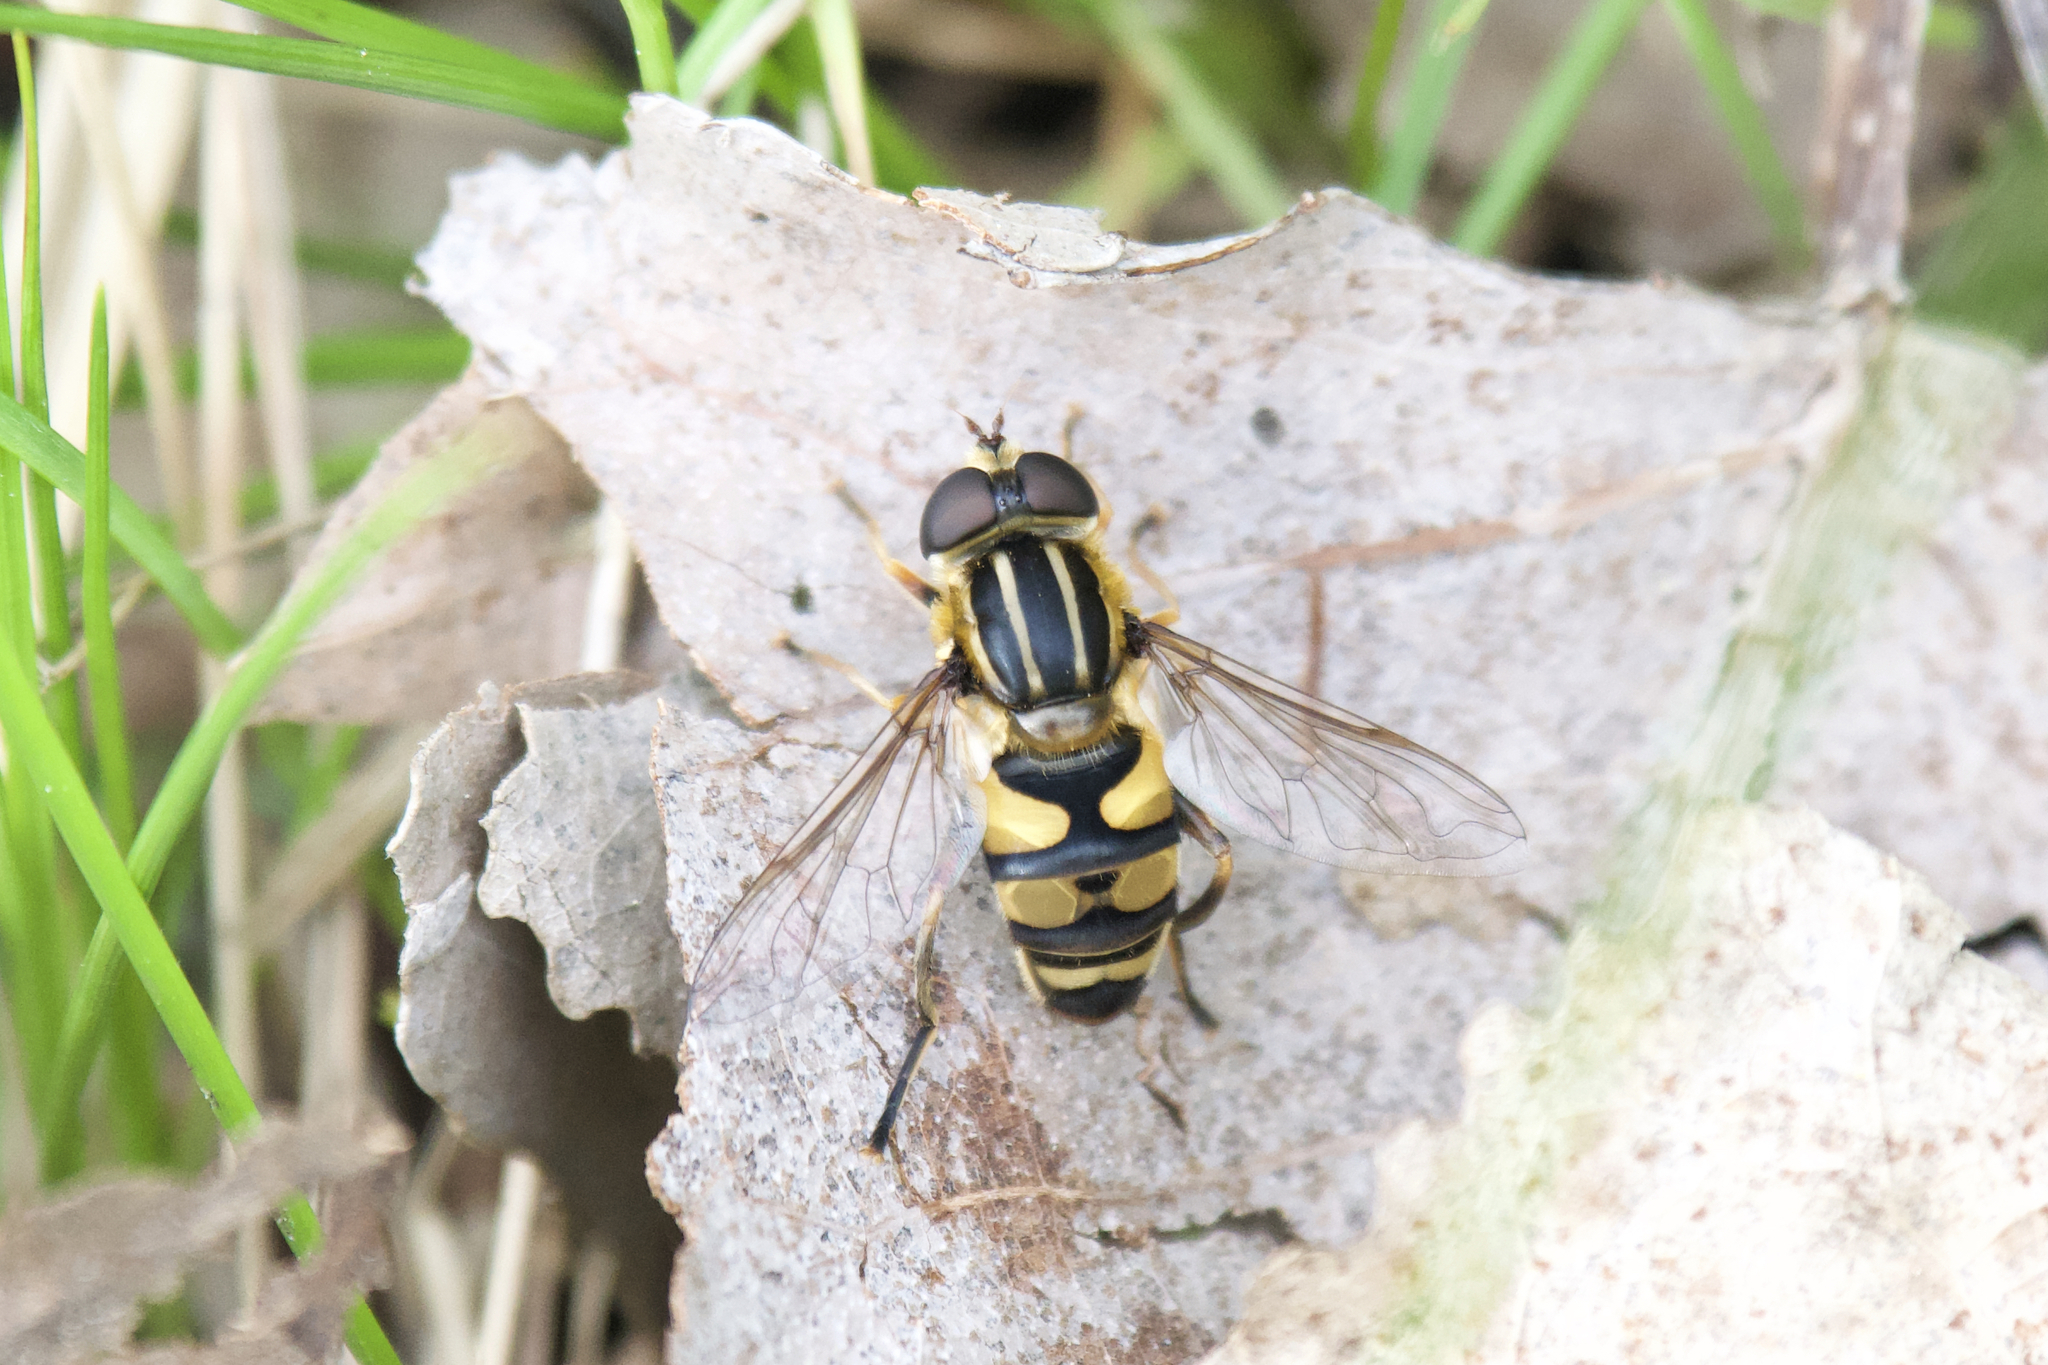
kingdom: Animalia
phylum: Arthropoda
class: Insecta
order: Diptera
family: Syrphidae
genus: Helophilus
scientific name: Helophilus fasciatus
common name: Narrow-headed marsh fly
